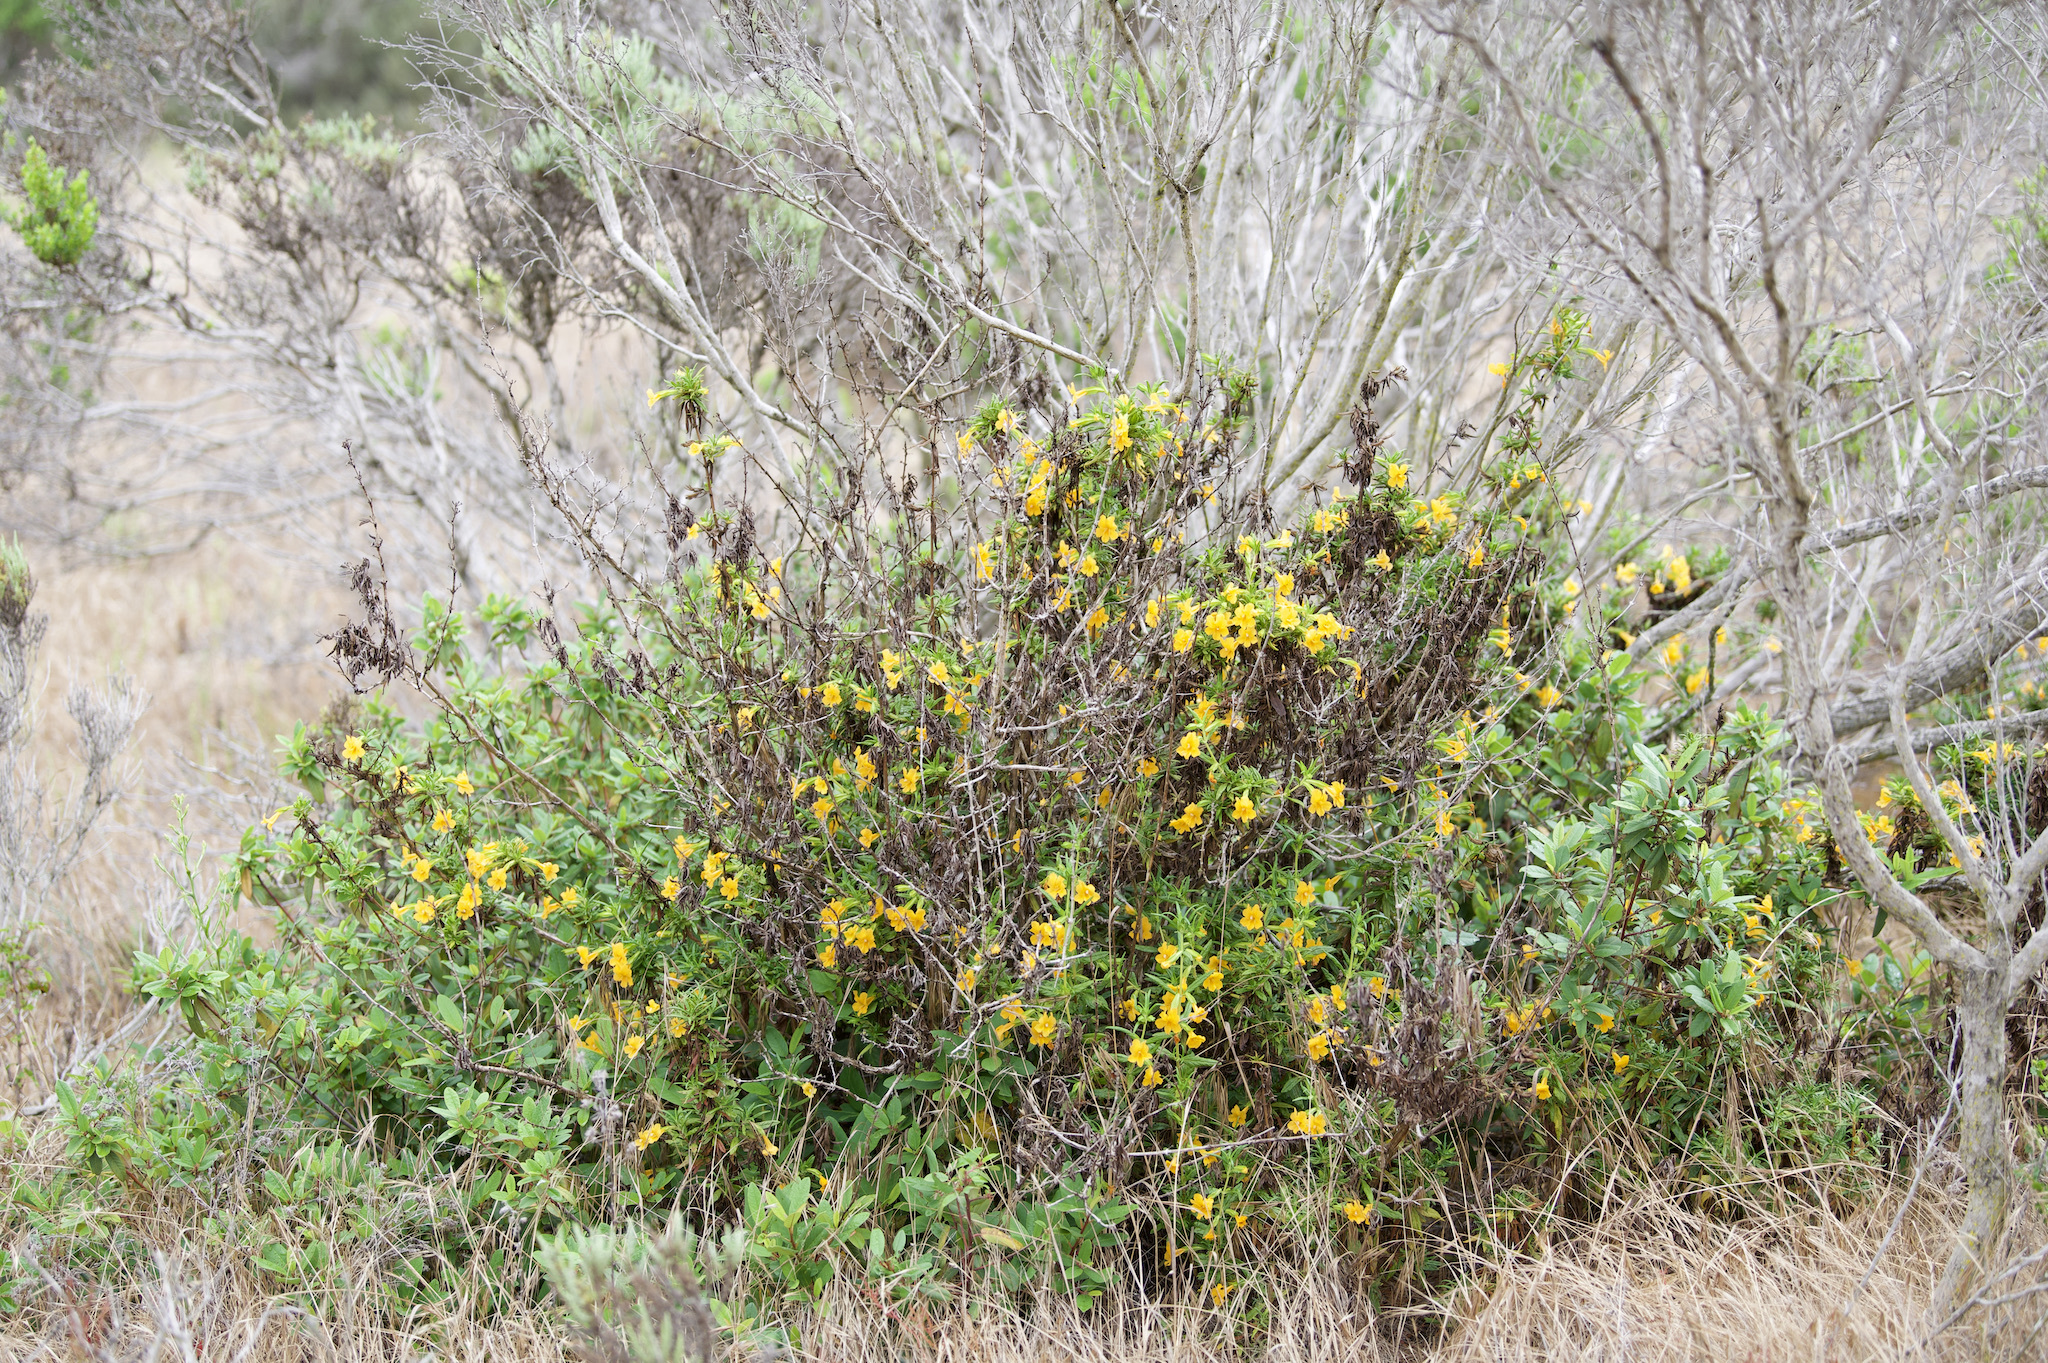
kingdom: Plantae
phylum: Tracheophyta
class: Magnoliopsida
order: Lamiales
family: Phrymaceae
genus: Diplacus
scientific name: Diplacus aurantiacus
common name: Bush monkey-flower
